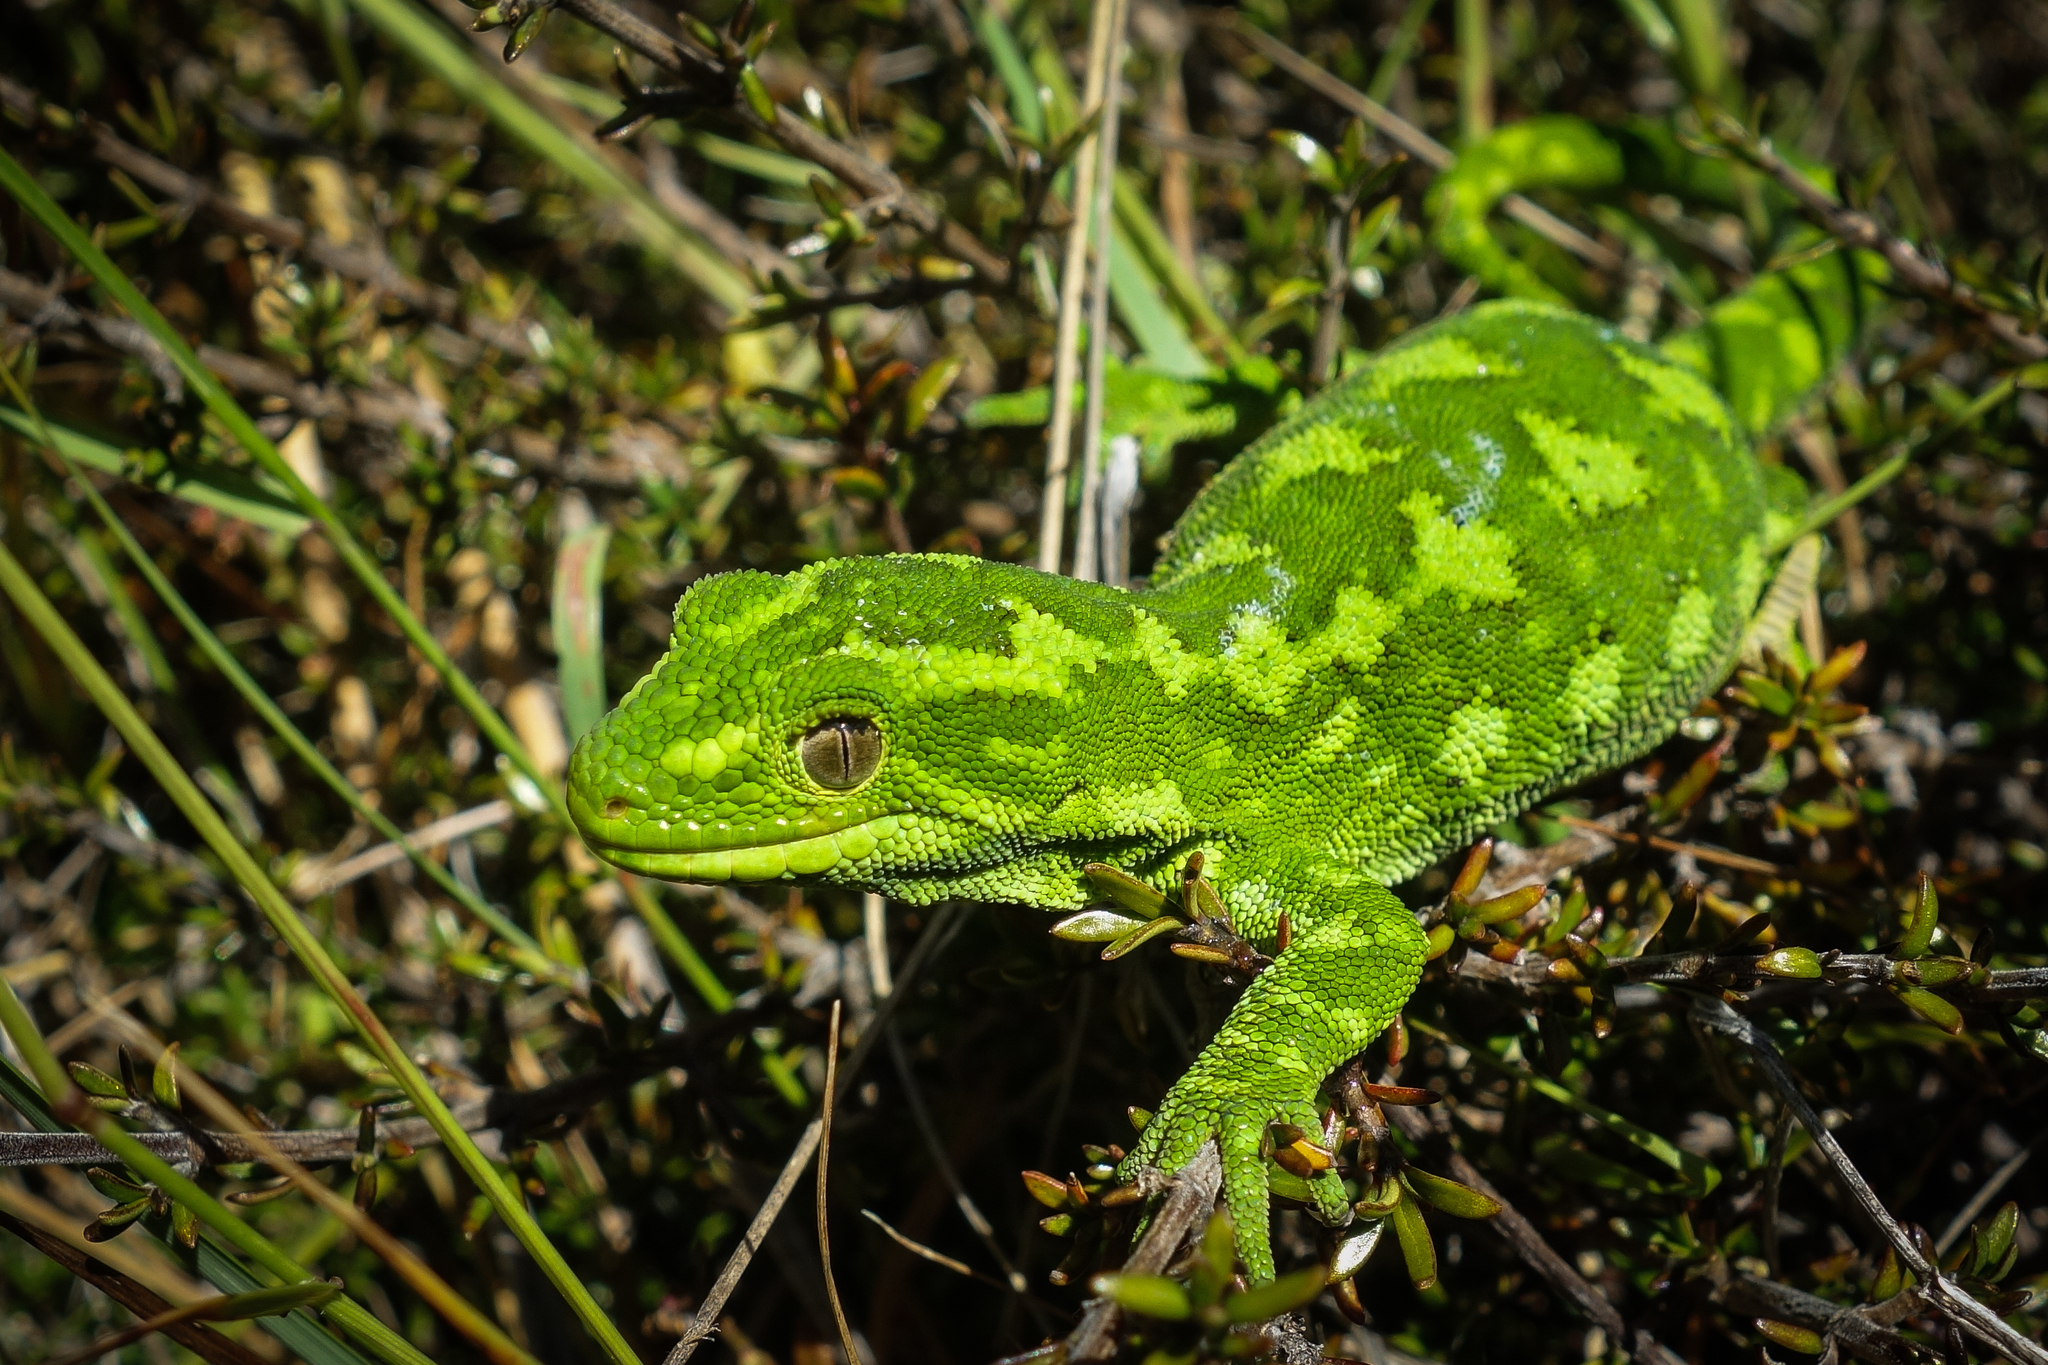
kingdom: Animalia
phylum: Chordata
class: Squamata
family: Diplodactylidae
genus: Naultinus
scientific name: Naultinus gemmeus
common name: Jewelled gecko
